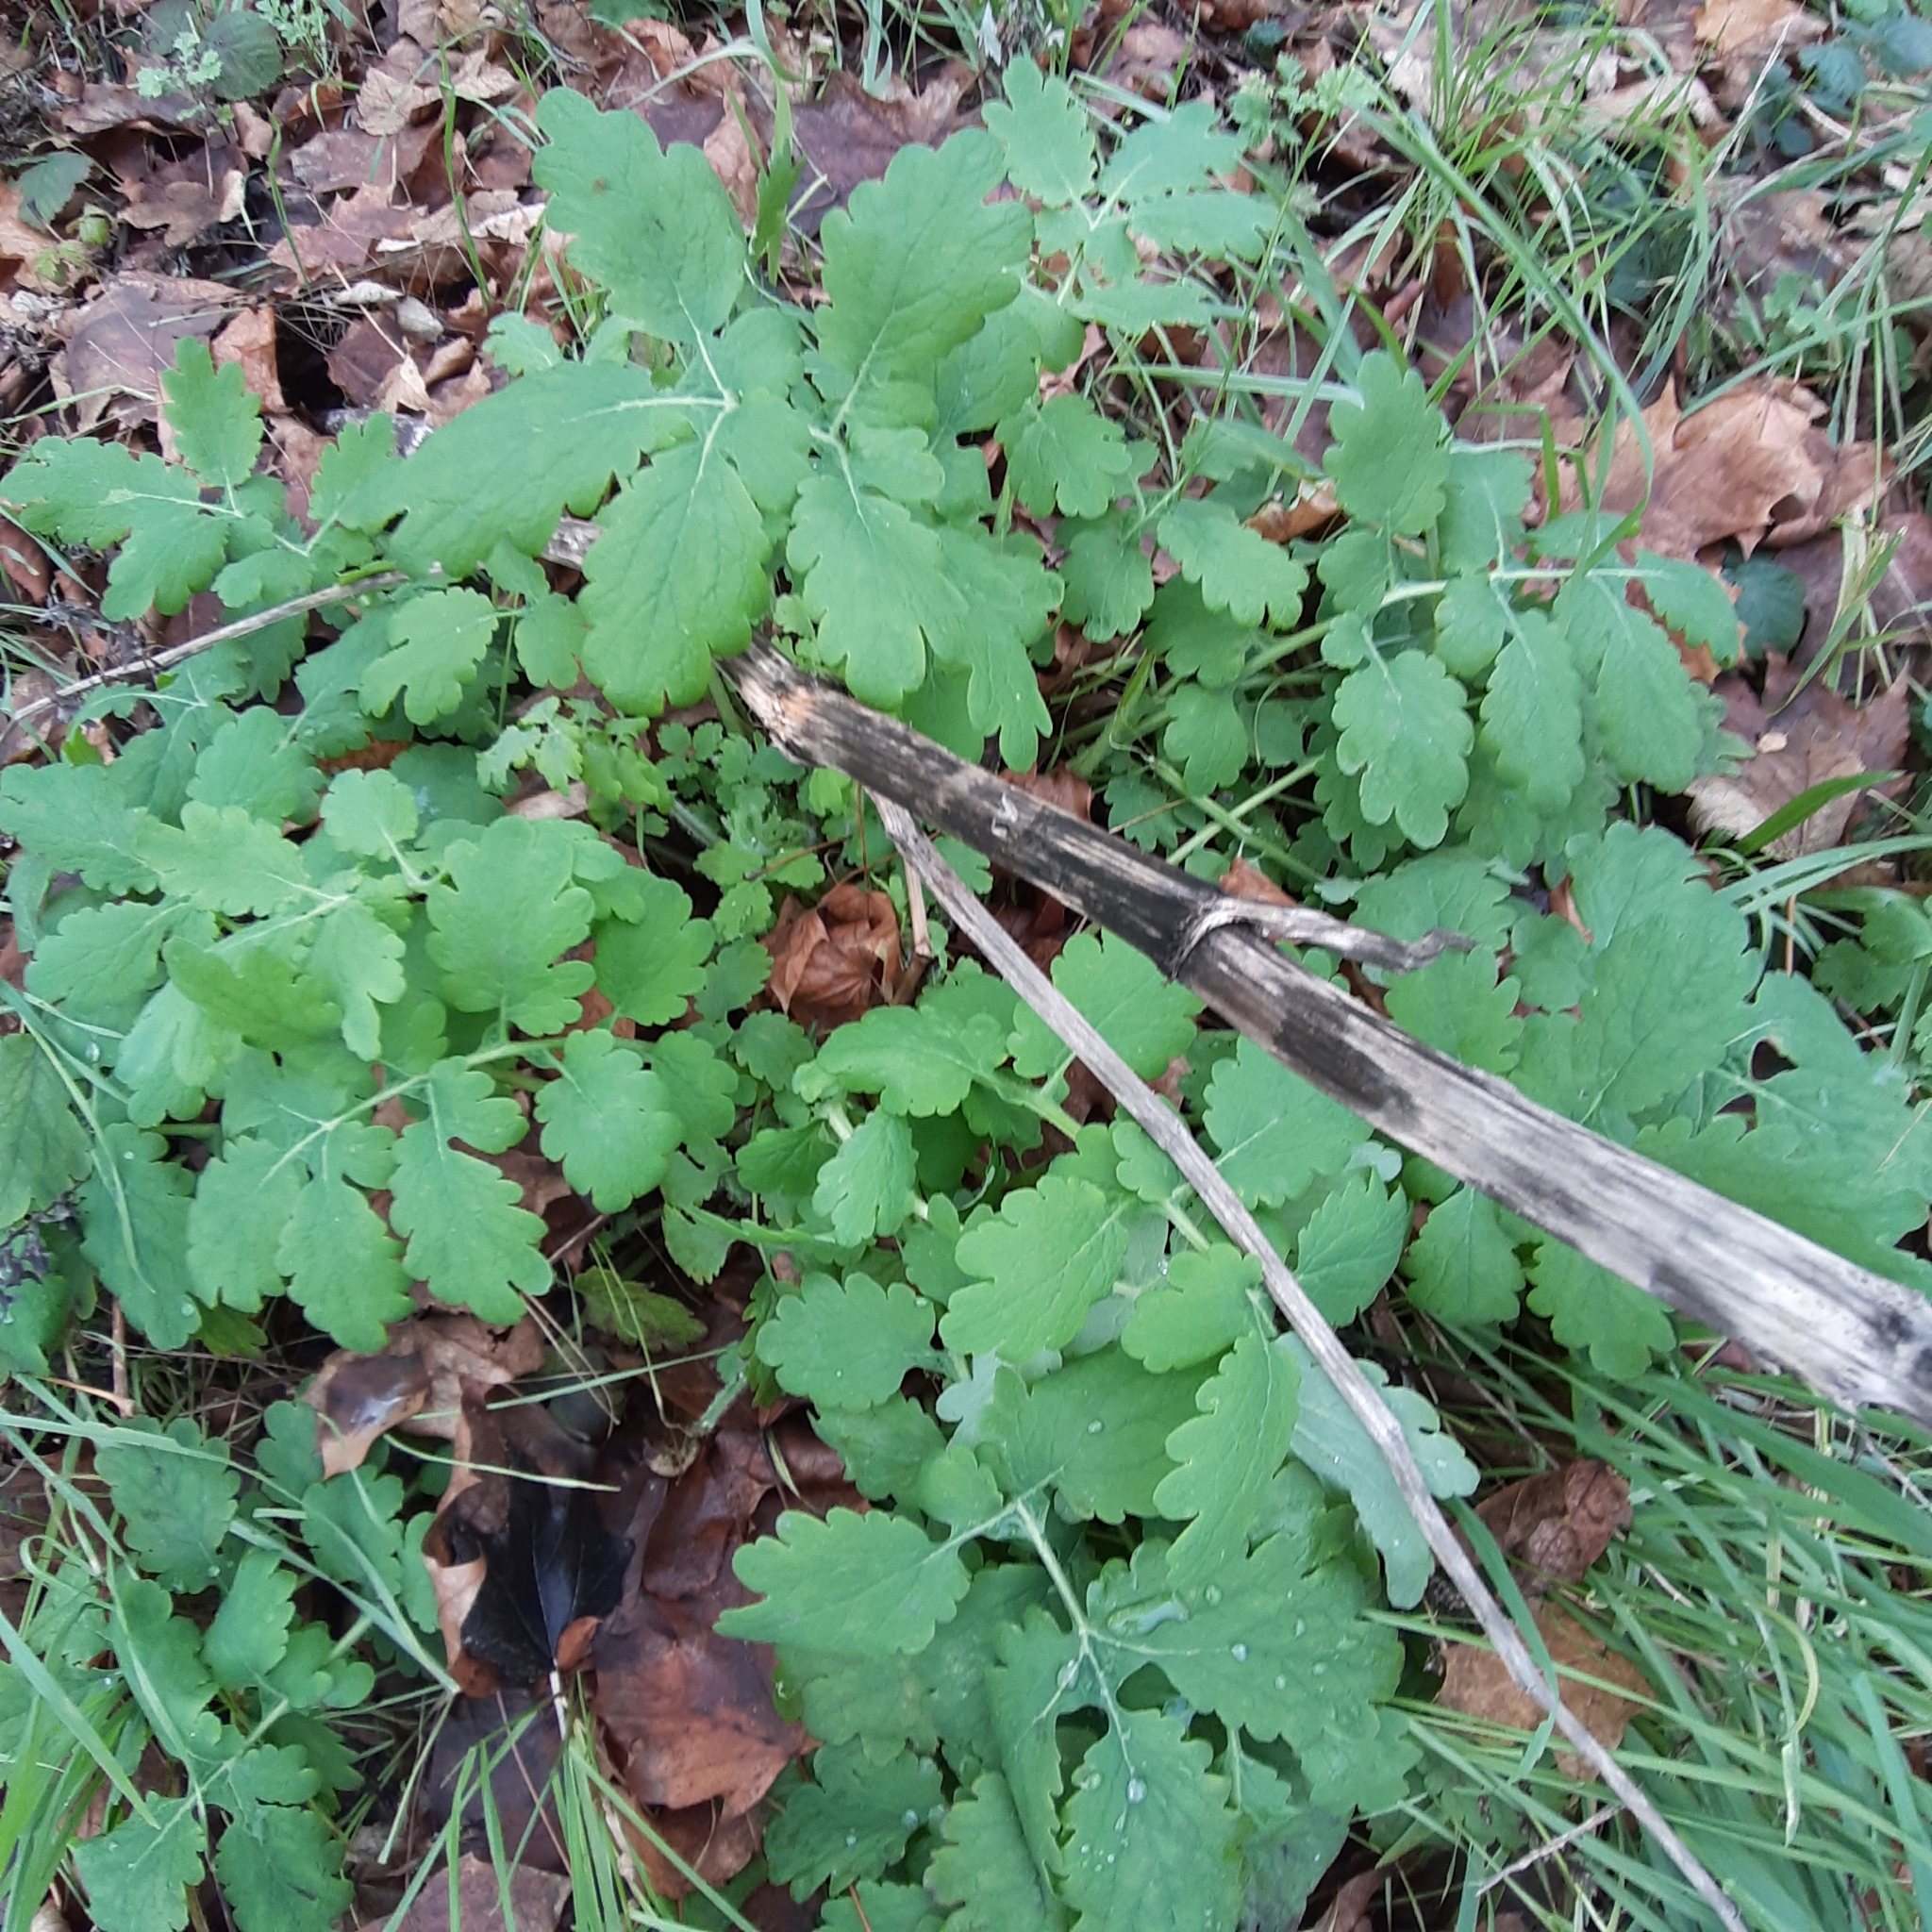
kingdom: Plantae
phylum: Tracheophyta
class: Magnoliopsida
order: Ranunculales
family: Papaveraceae
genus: Chelidonium
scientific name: Chelidonium majus
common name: Greater celandine
